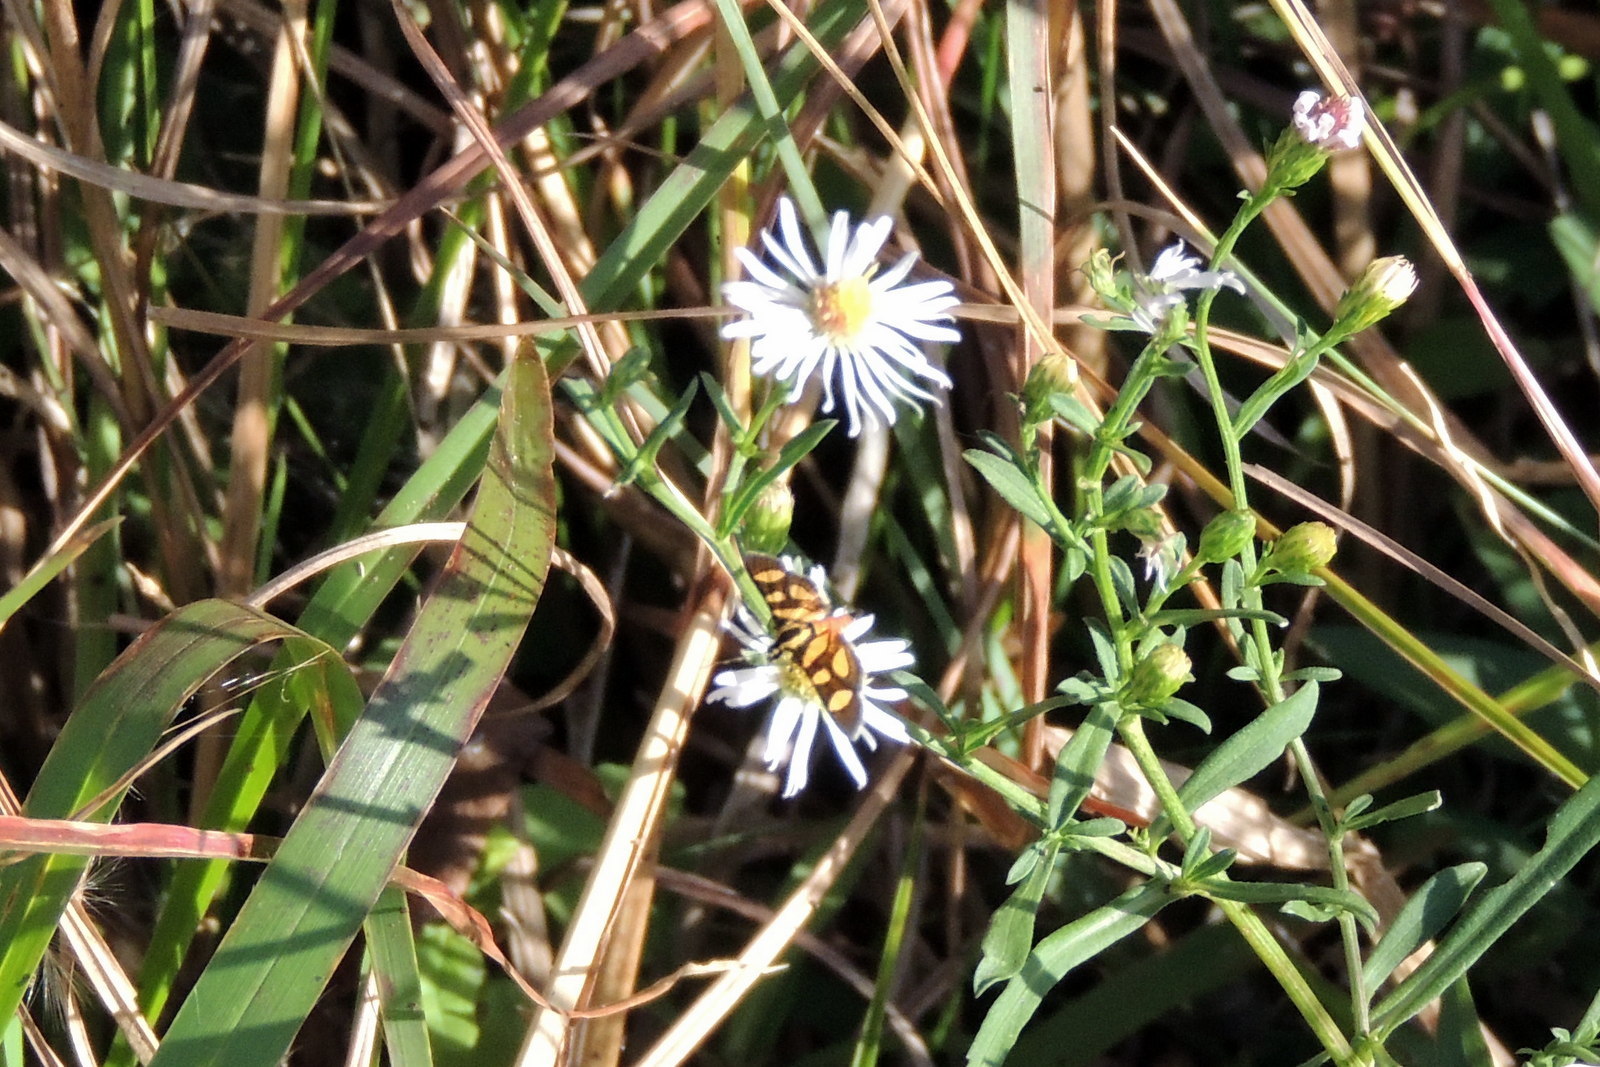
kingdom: Animalia
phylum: Arthropoda
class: Insecta
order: Lepidoptera
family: Crambidae
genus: Syngamia
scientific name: Syngamia florella
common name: Orange-spotted flower moth
